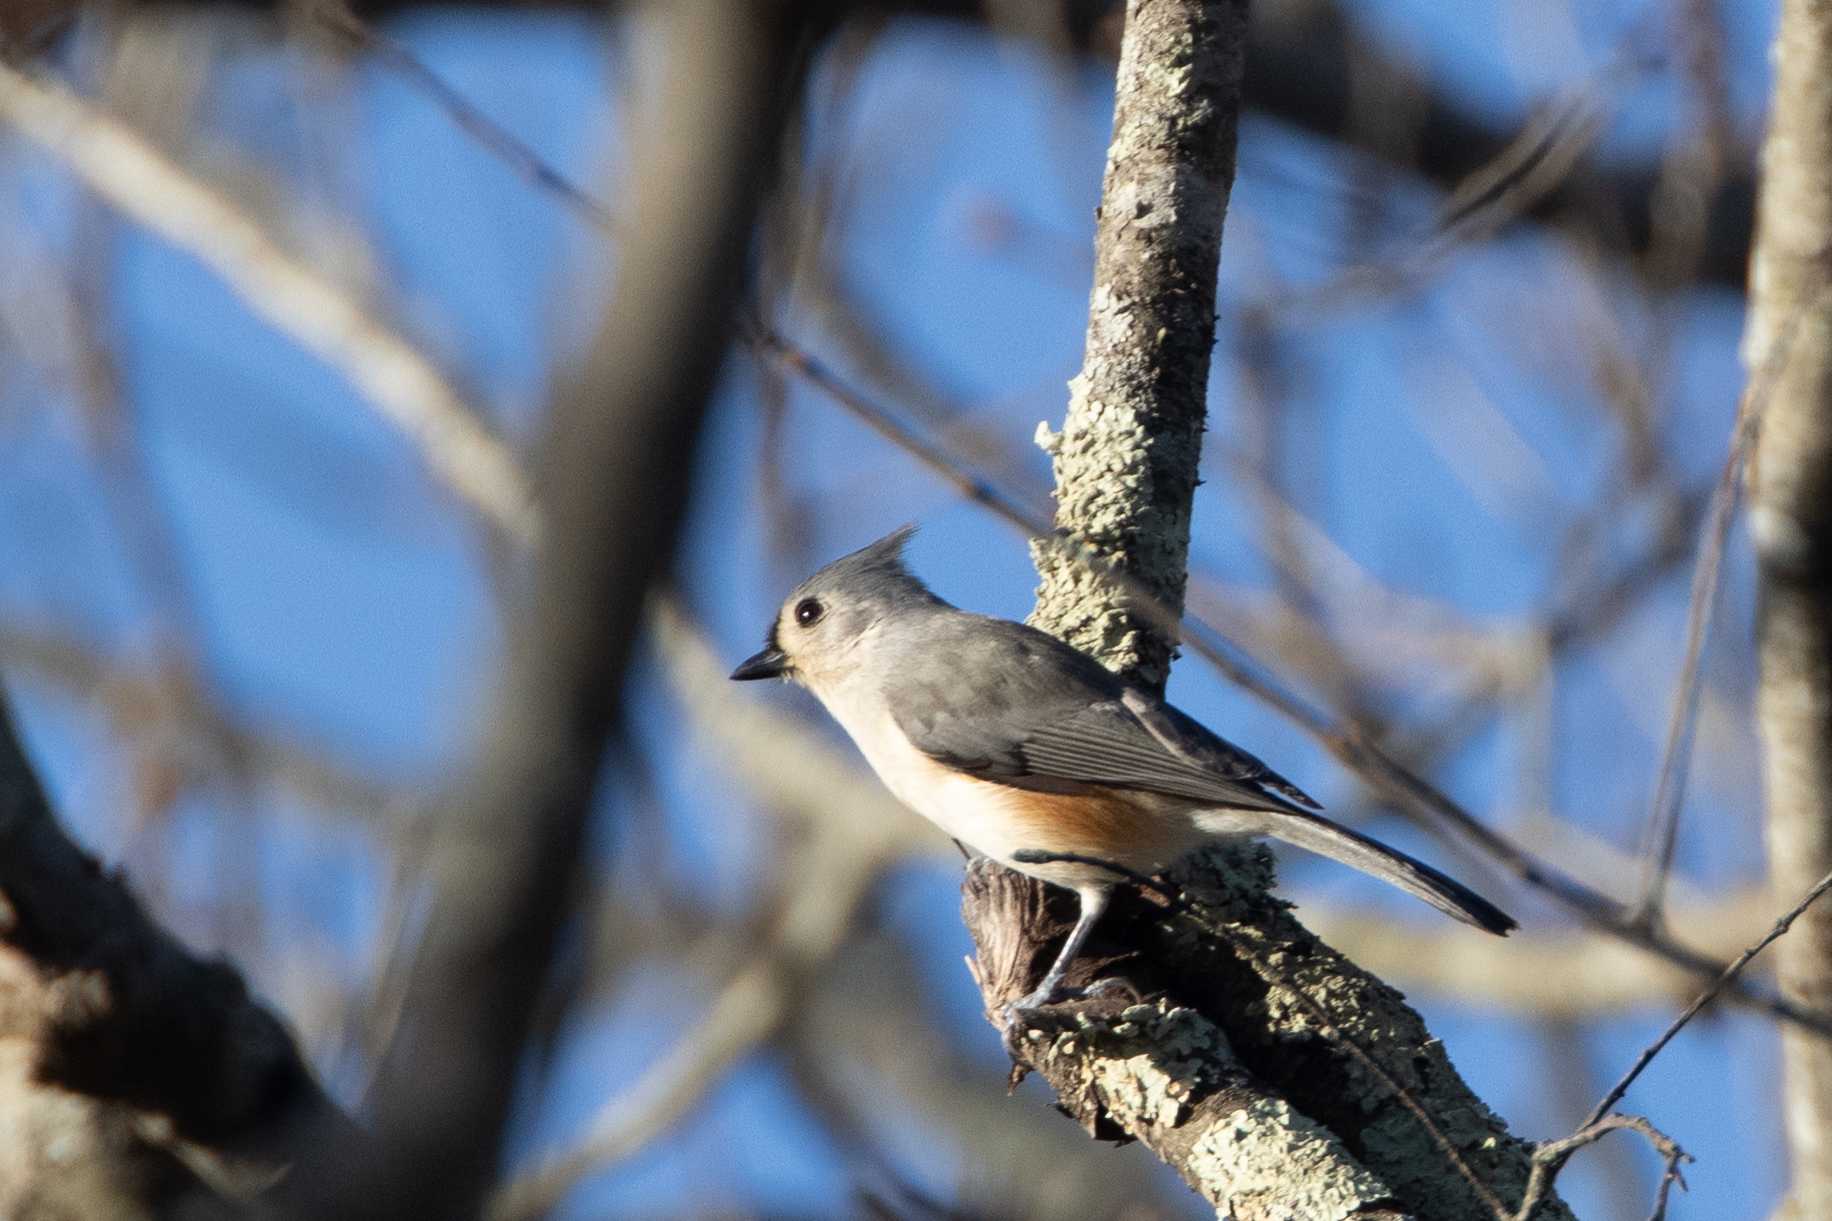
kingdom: Animalia
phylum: Chordata
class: Aves
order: Passeriformes
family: Paridae
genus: Baeolophus
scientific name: Baeolophus bicolor
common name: Tufted titmouse
